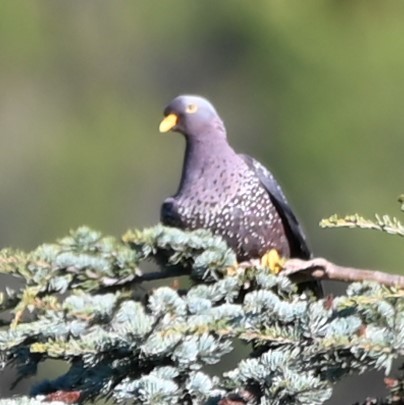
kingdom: Animalia
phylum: Chordata
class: Aves
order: Columbiformes
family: Columbidae
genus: Columba
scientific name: Columba arquatrix
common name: African olive pigeon
